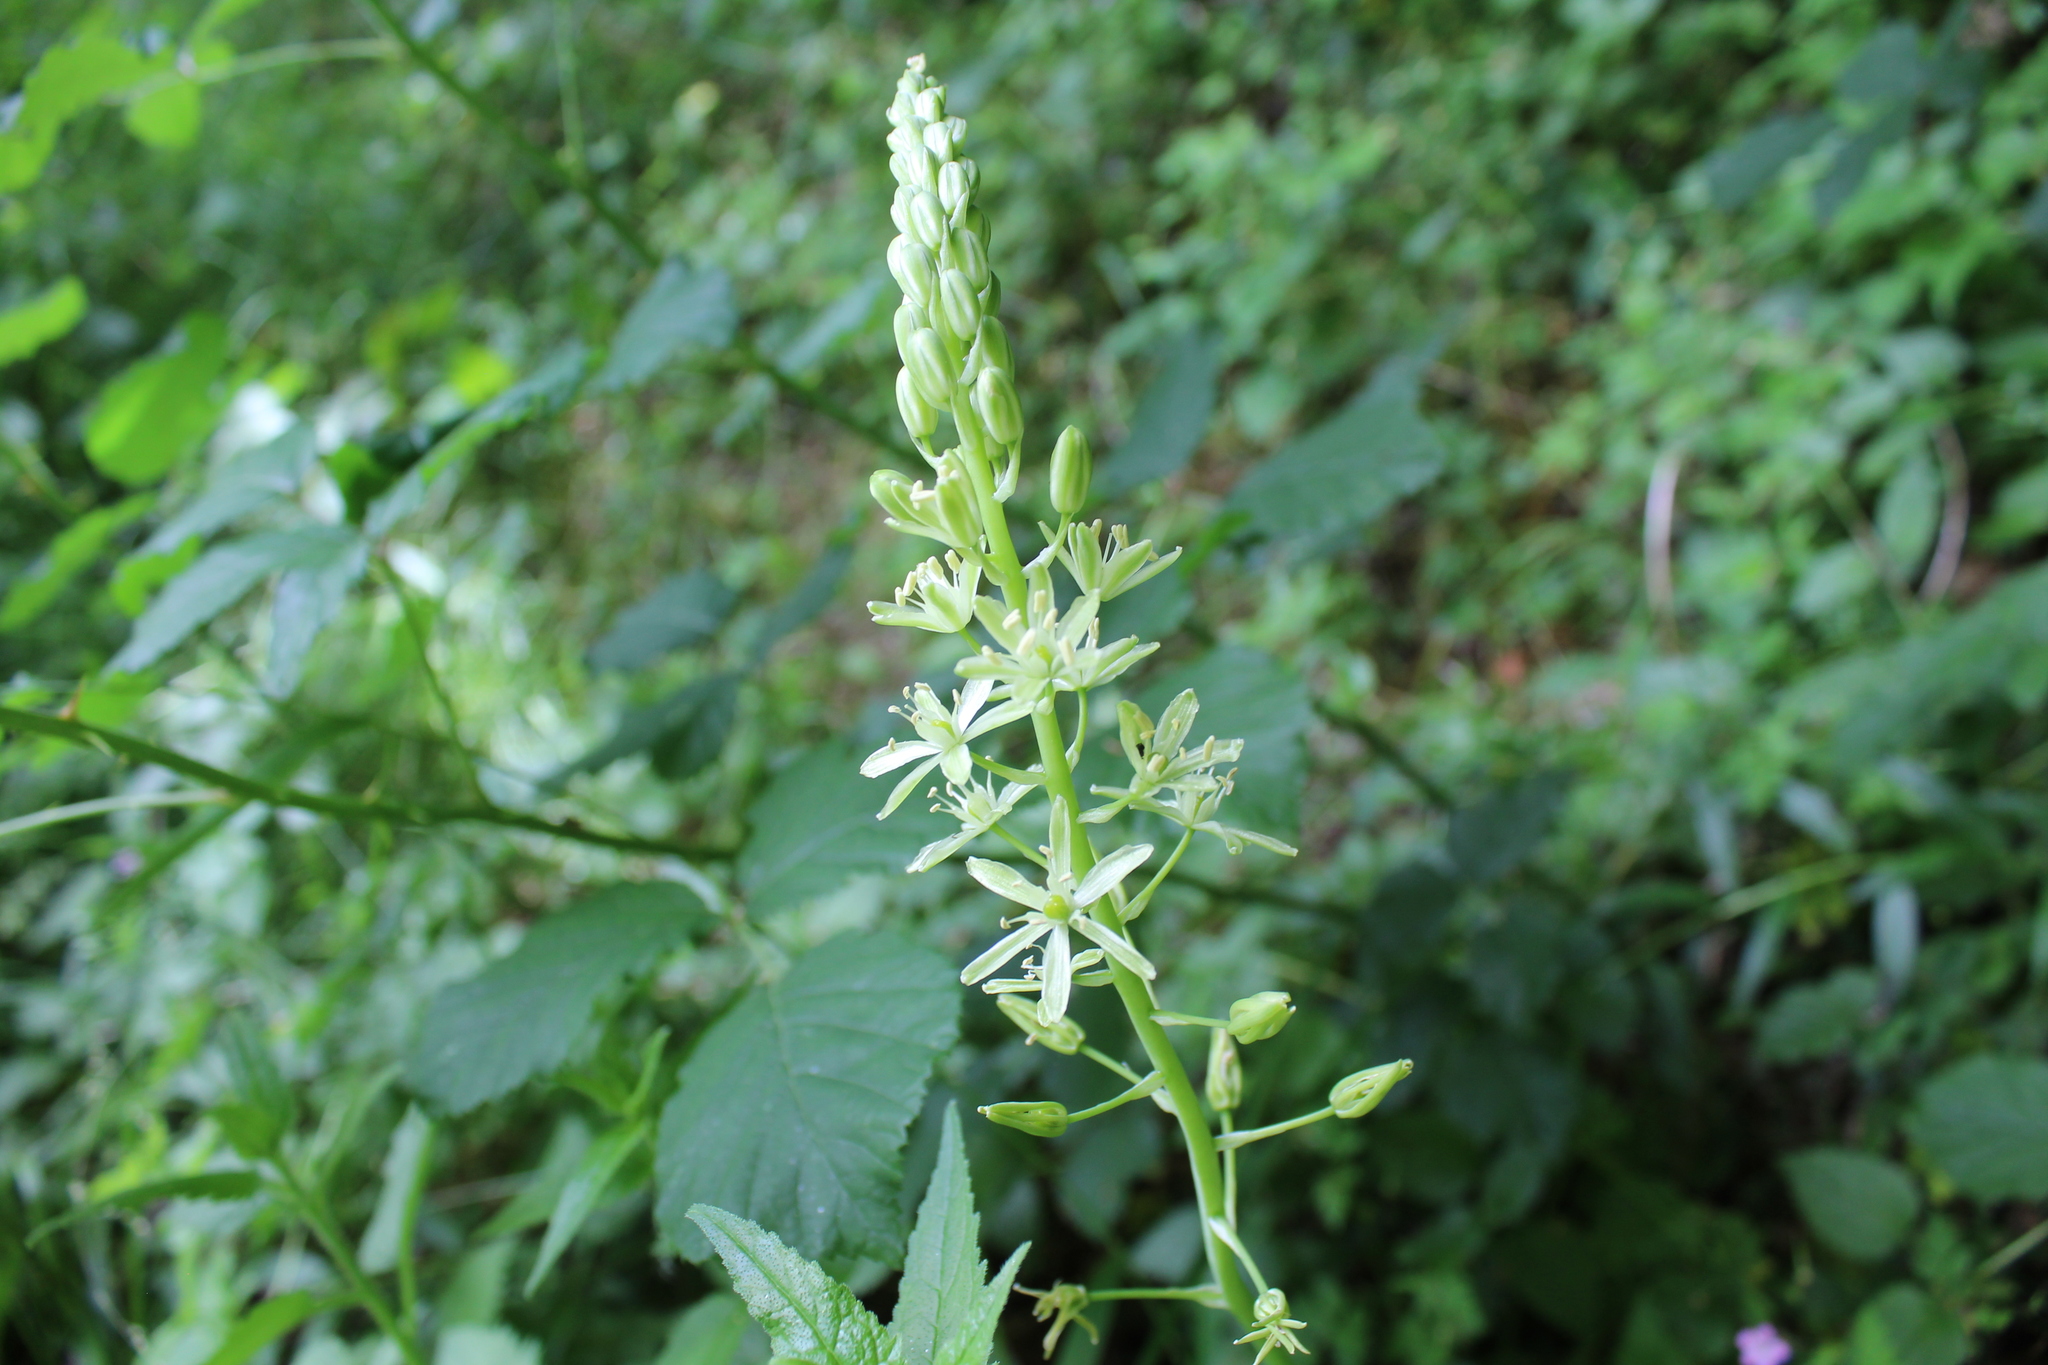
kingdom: Plantae
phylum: Tracheophyta
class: Liliopsida
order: Asparagales
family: Asparagaceae
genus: Ornithogalum
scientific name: Ornithogalum pyrenaicum
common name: Spiked star-of-bethlehem
